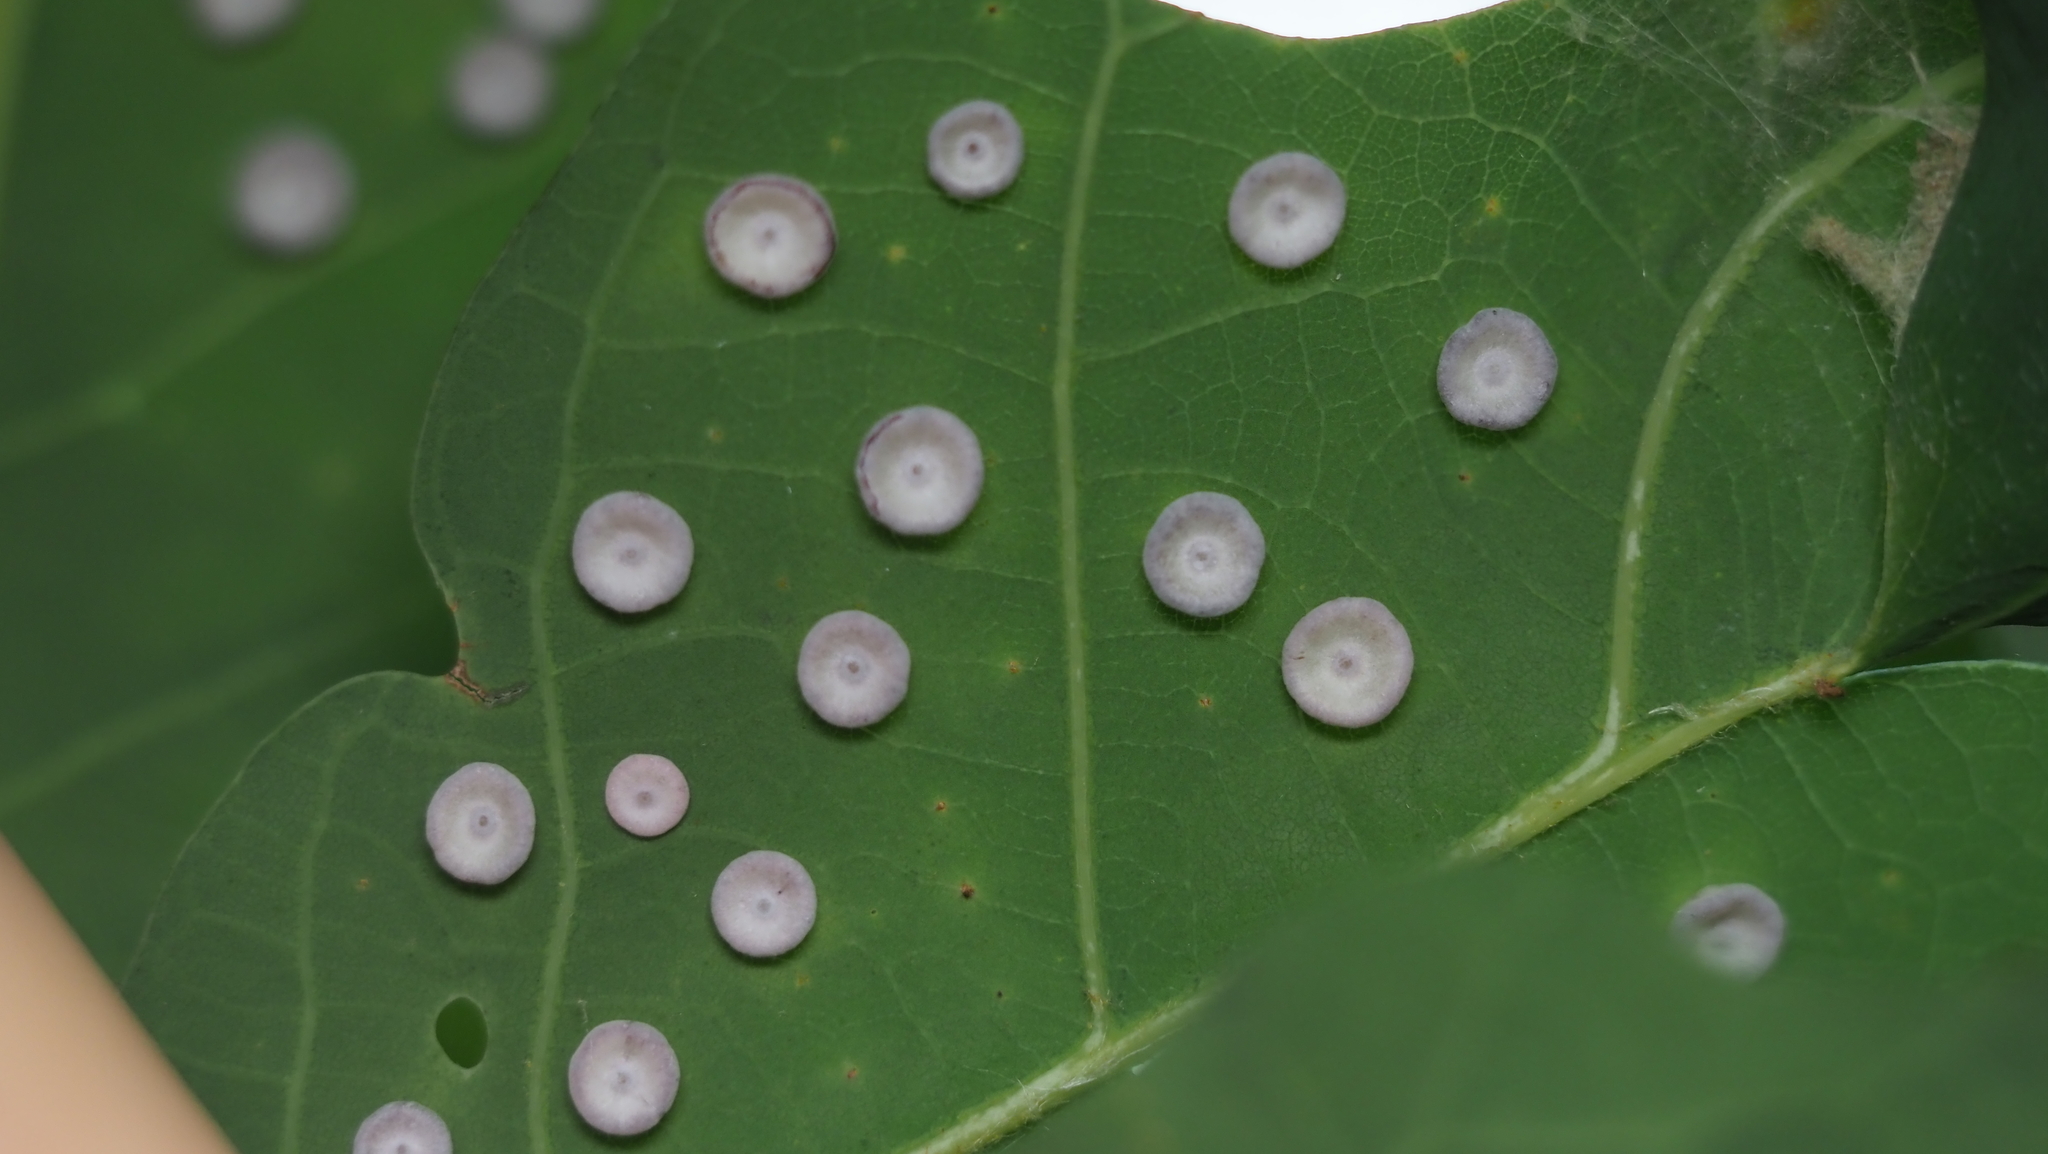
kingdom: Animalia
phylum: Arthropoda
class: Insecta
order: Hymenoptera
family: Cynipidae
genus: Phylloteras
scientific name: Phylloteras poculum
